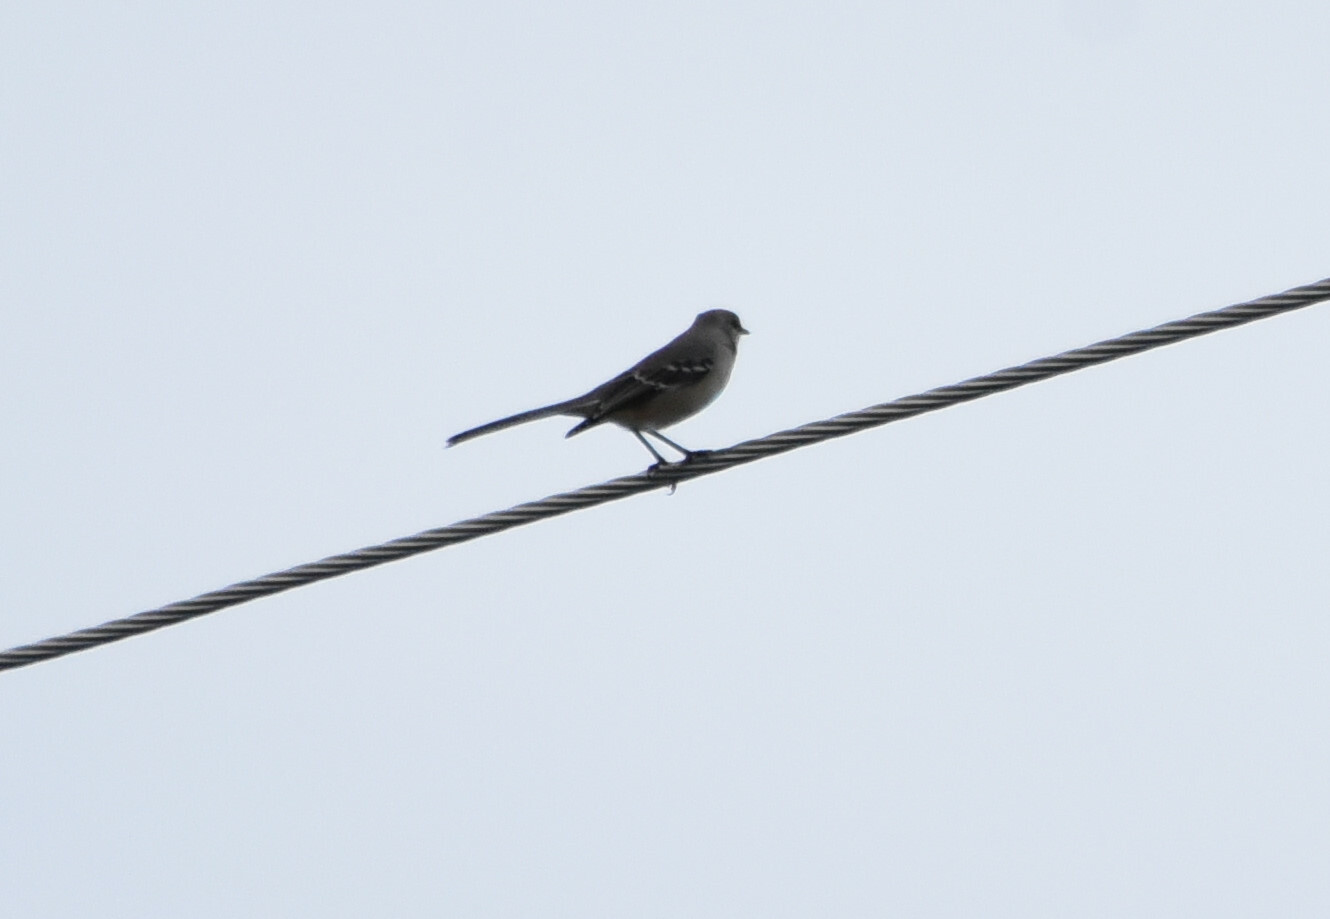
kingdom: Animalia
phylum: Chordata
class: Aves
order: Passeriformes
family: Mimidae
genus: Mimus
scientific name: Mimus polyglottos
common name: Northern mockingbird
